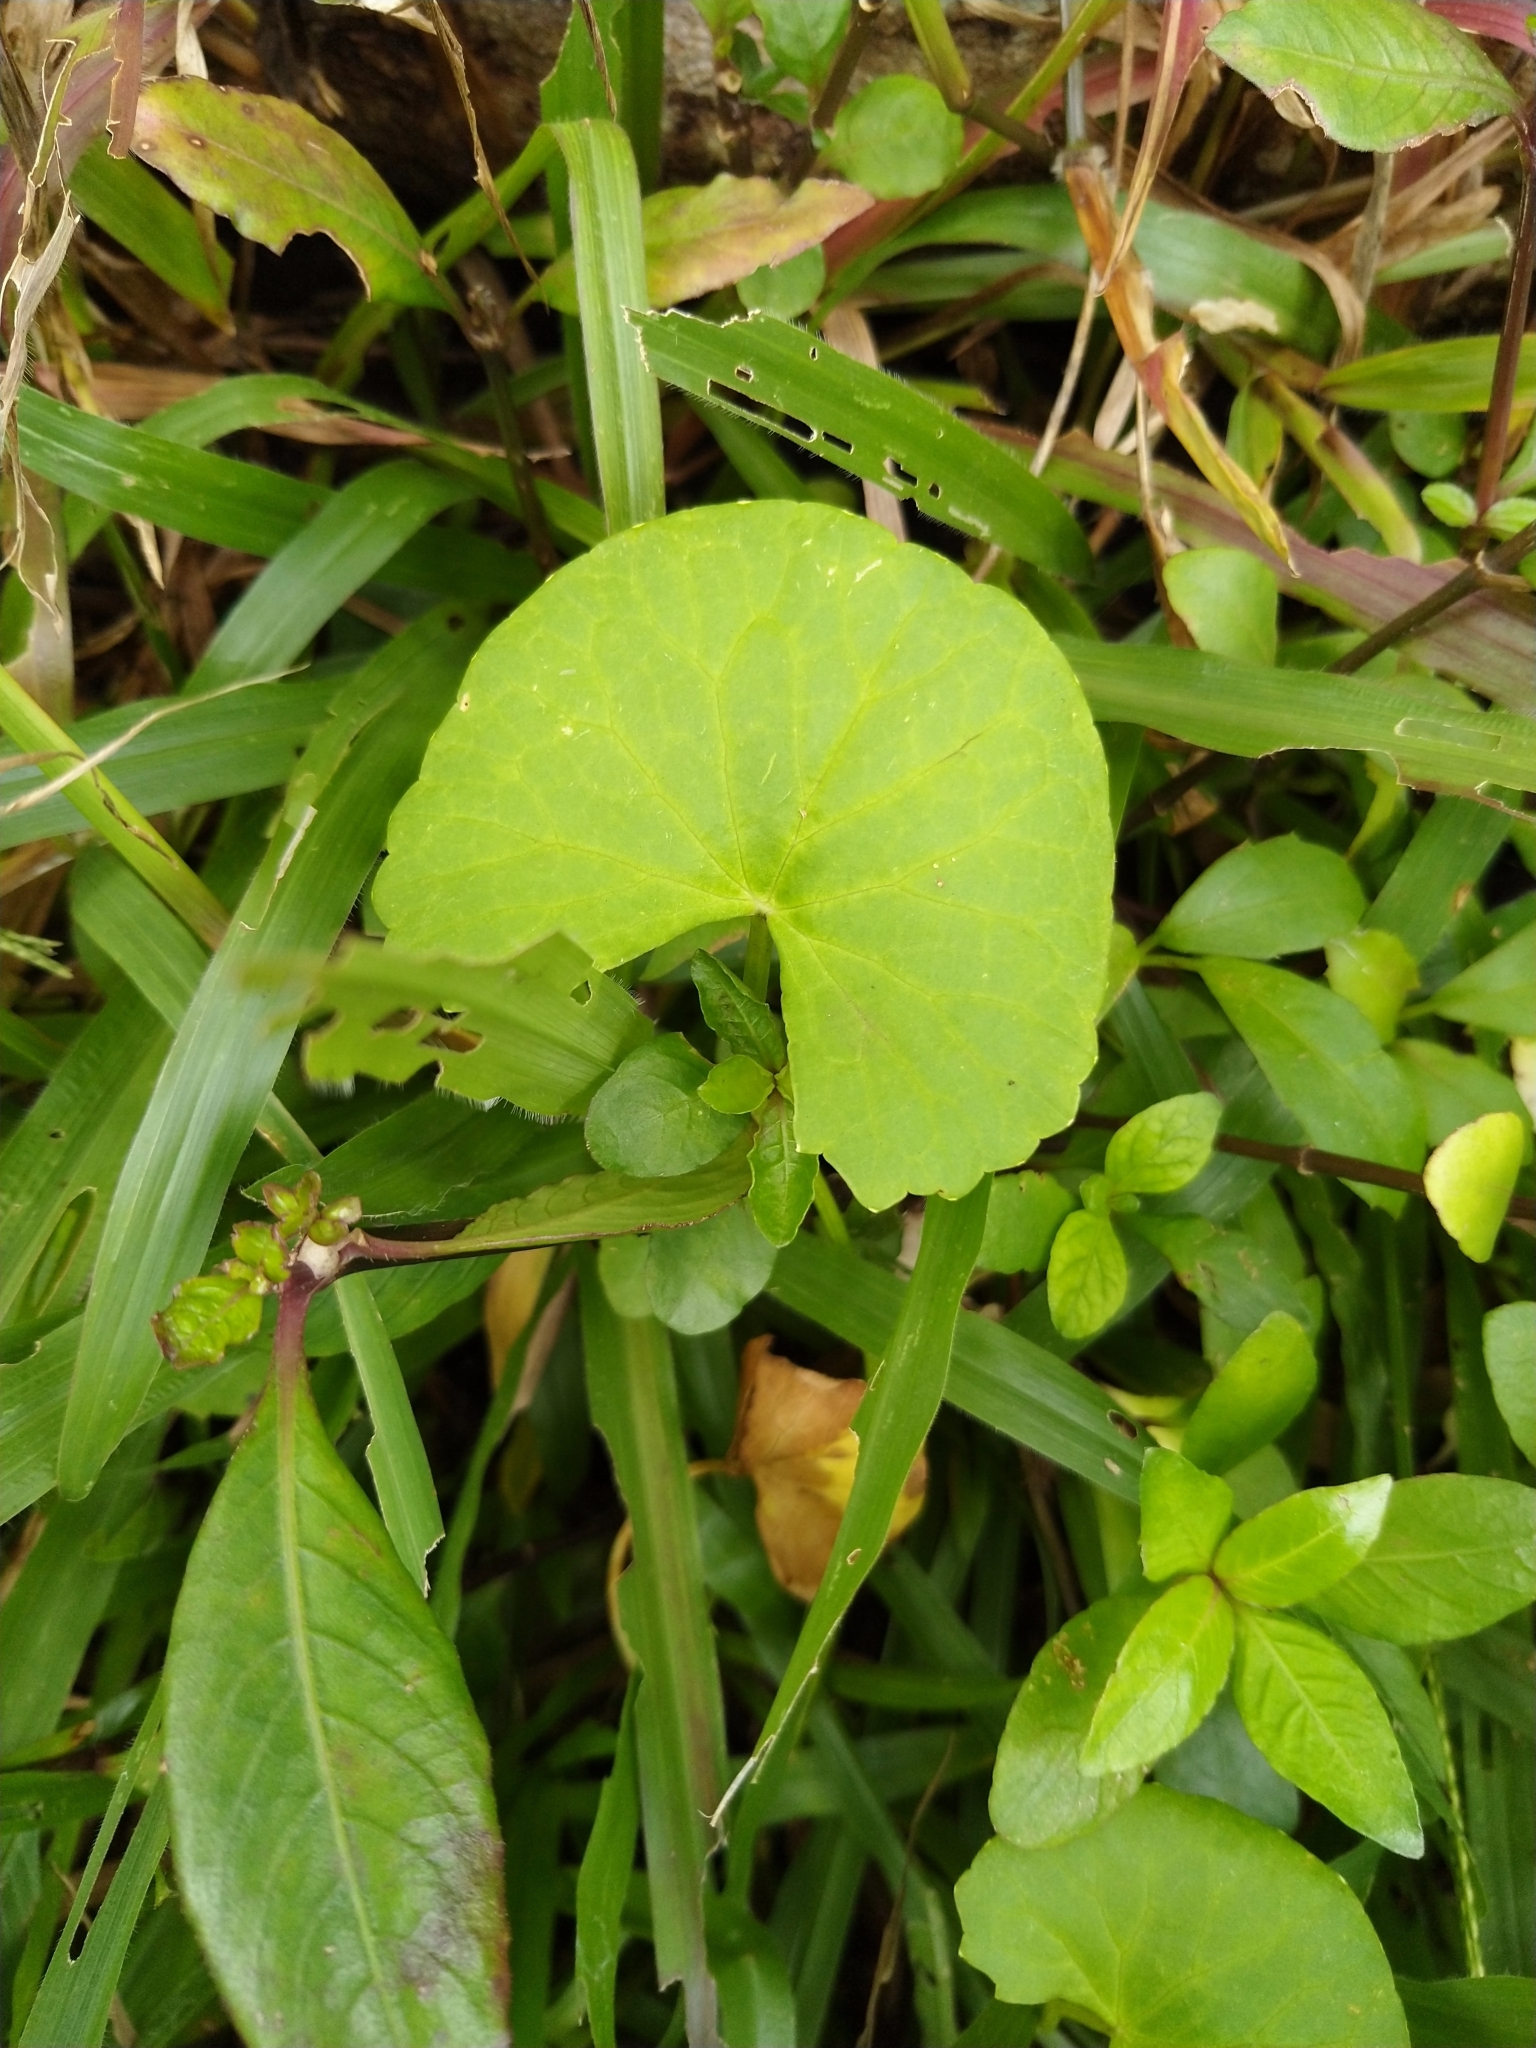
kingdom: Plantae
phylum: Tracheophyta
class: Magnoliopsida
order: Apiales
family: Apiaceae
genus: Centella
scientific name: Centella asiatica
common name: Spadeleaf
